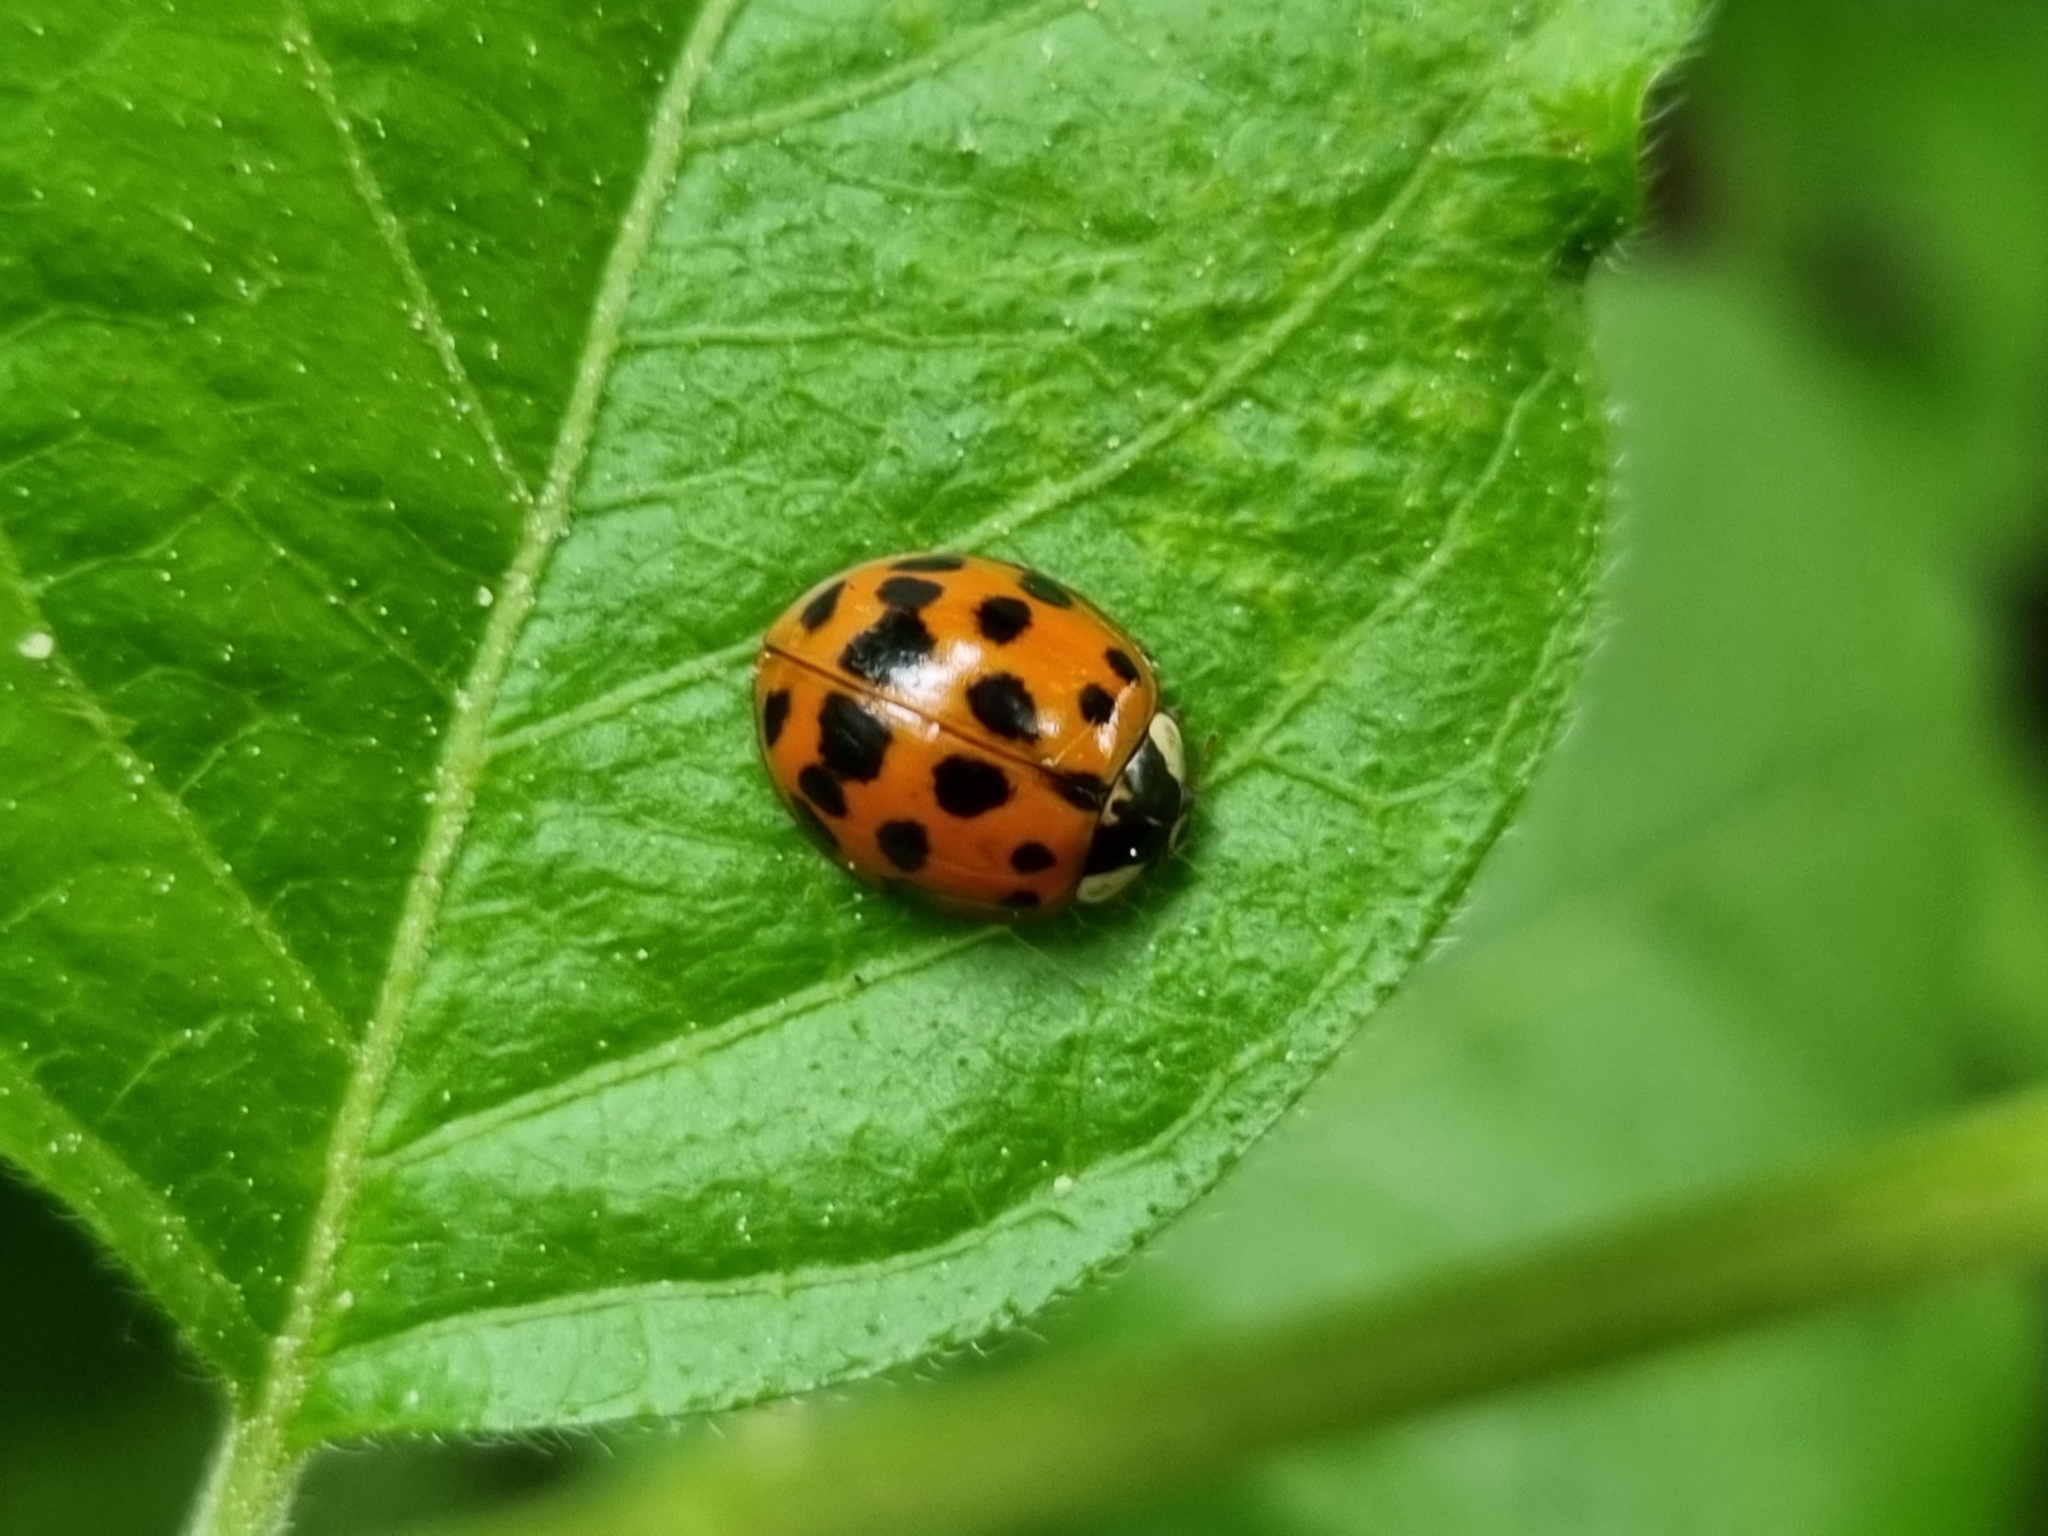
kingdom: Animalia
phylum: Arthropoda
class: Insecta
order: Coleoptera
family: Coccinellidae
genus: Harmonia
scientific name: Harmonia axyridis
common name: Harlequin ladybird
